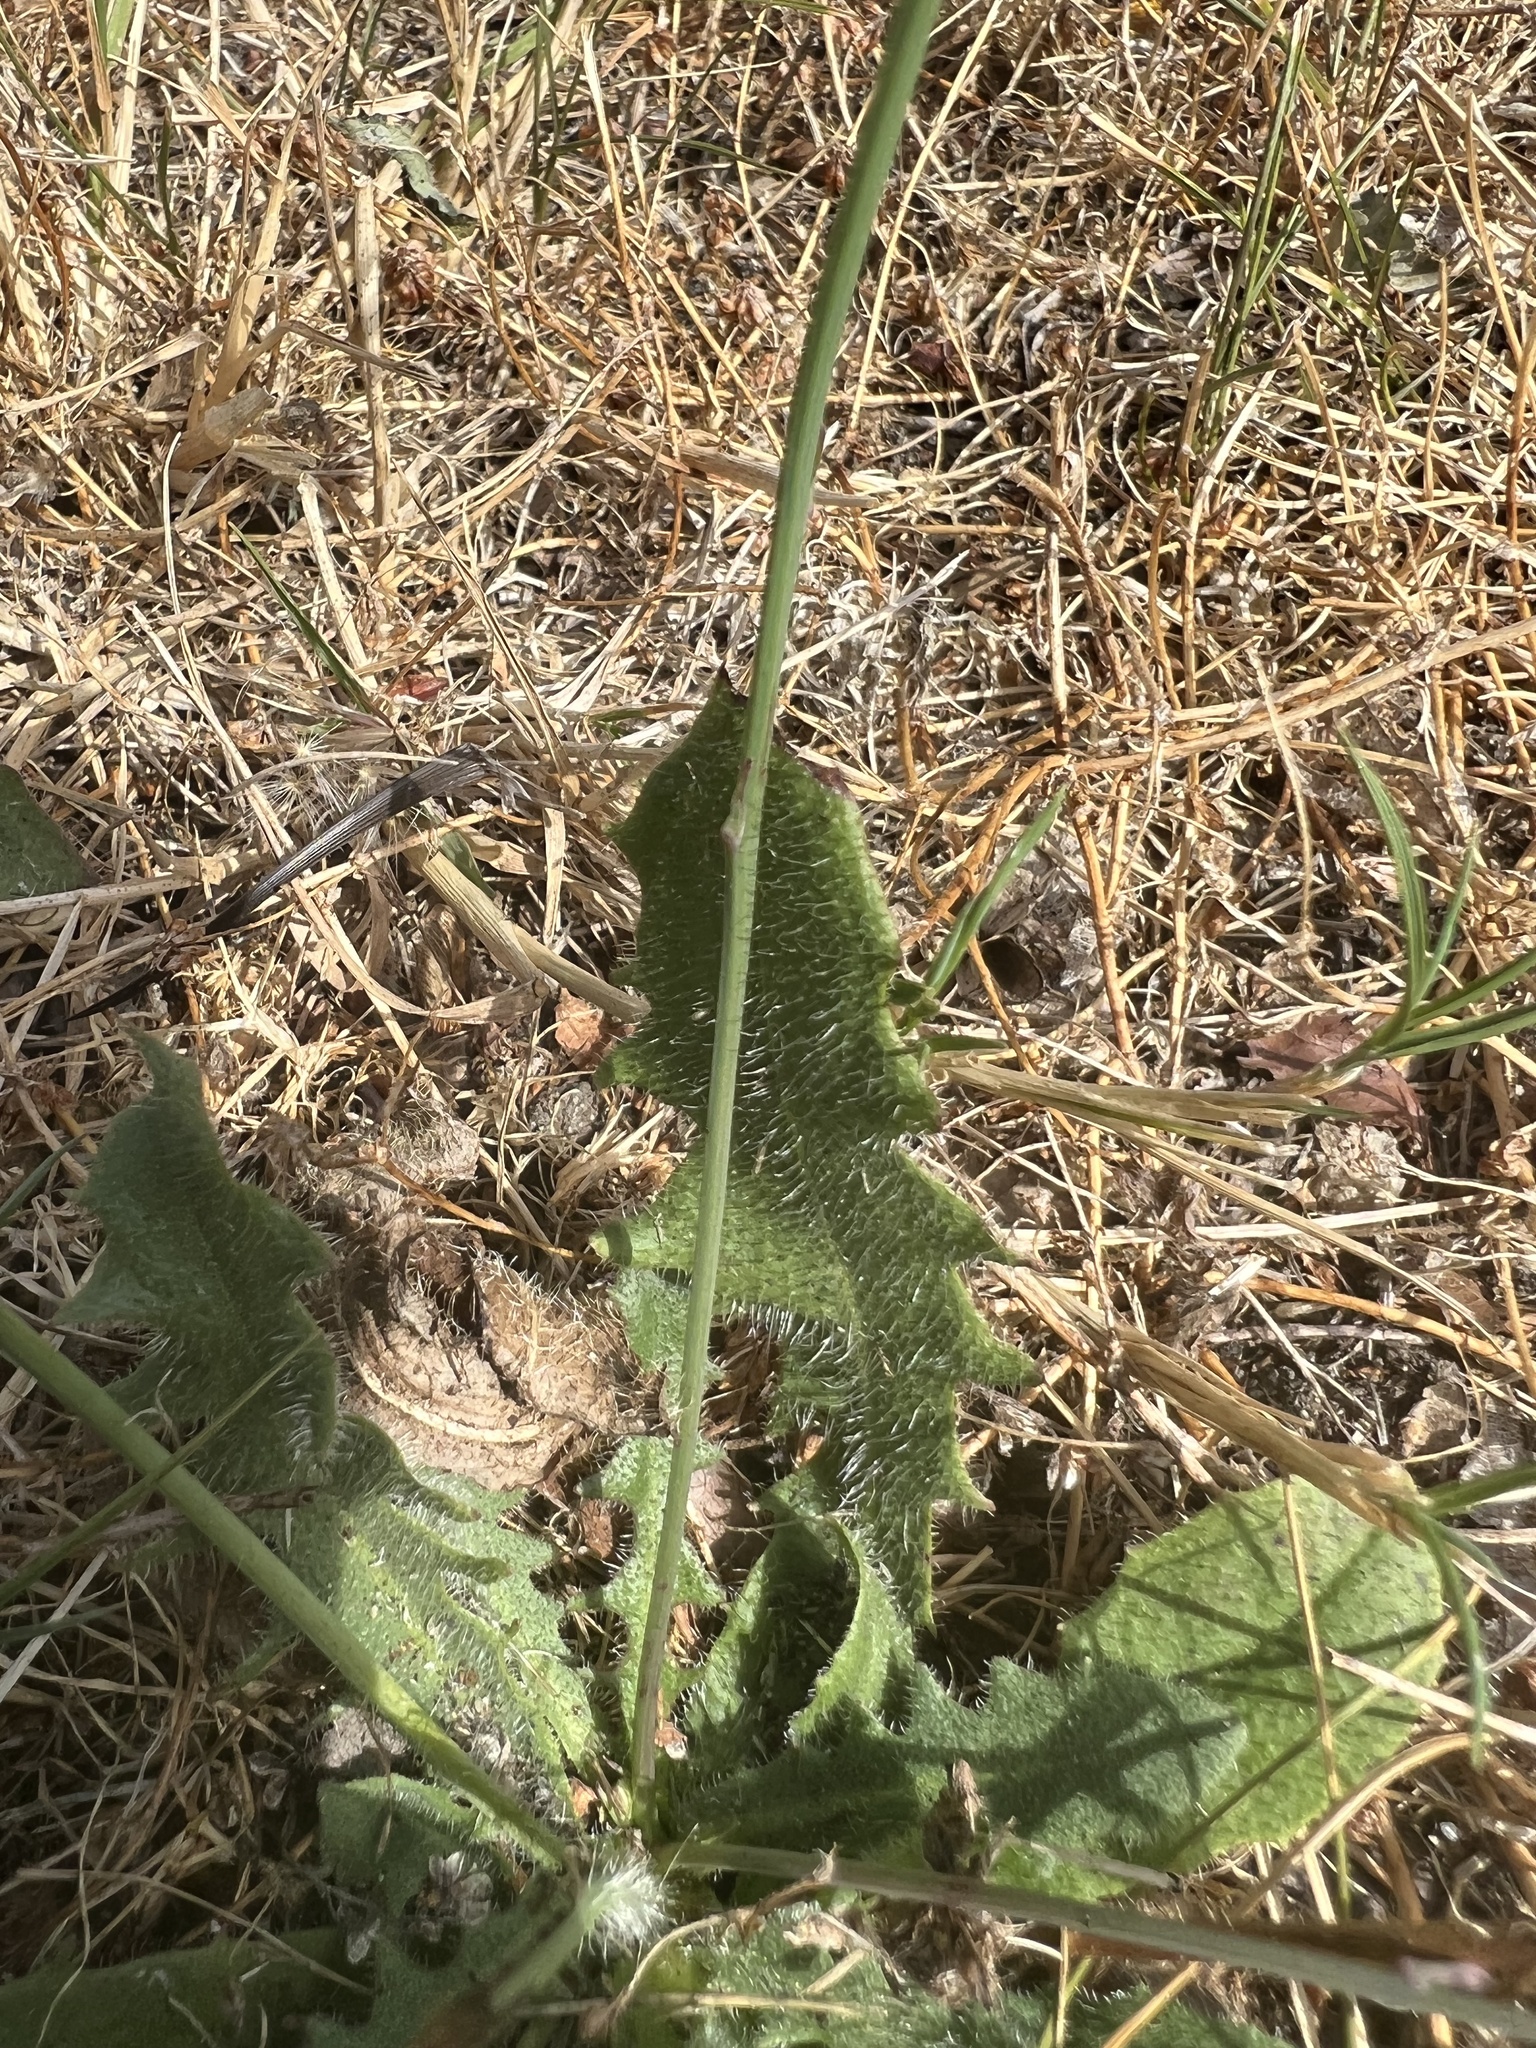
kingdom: Plantae
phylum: Tracheophyta
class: Magnoliopsida
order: Asterales
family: Asteraceae
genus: Hypochaeris
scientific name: Hypochaeris radicata
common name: Flatweed
